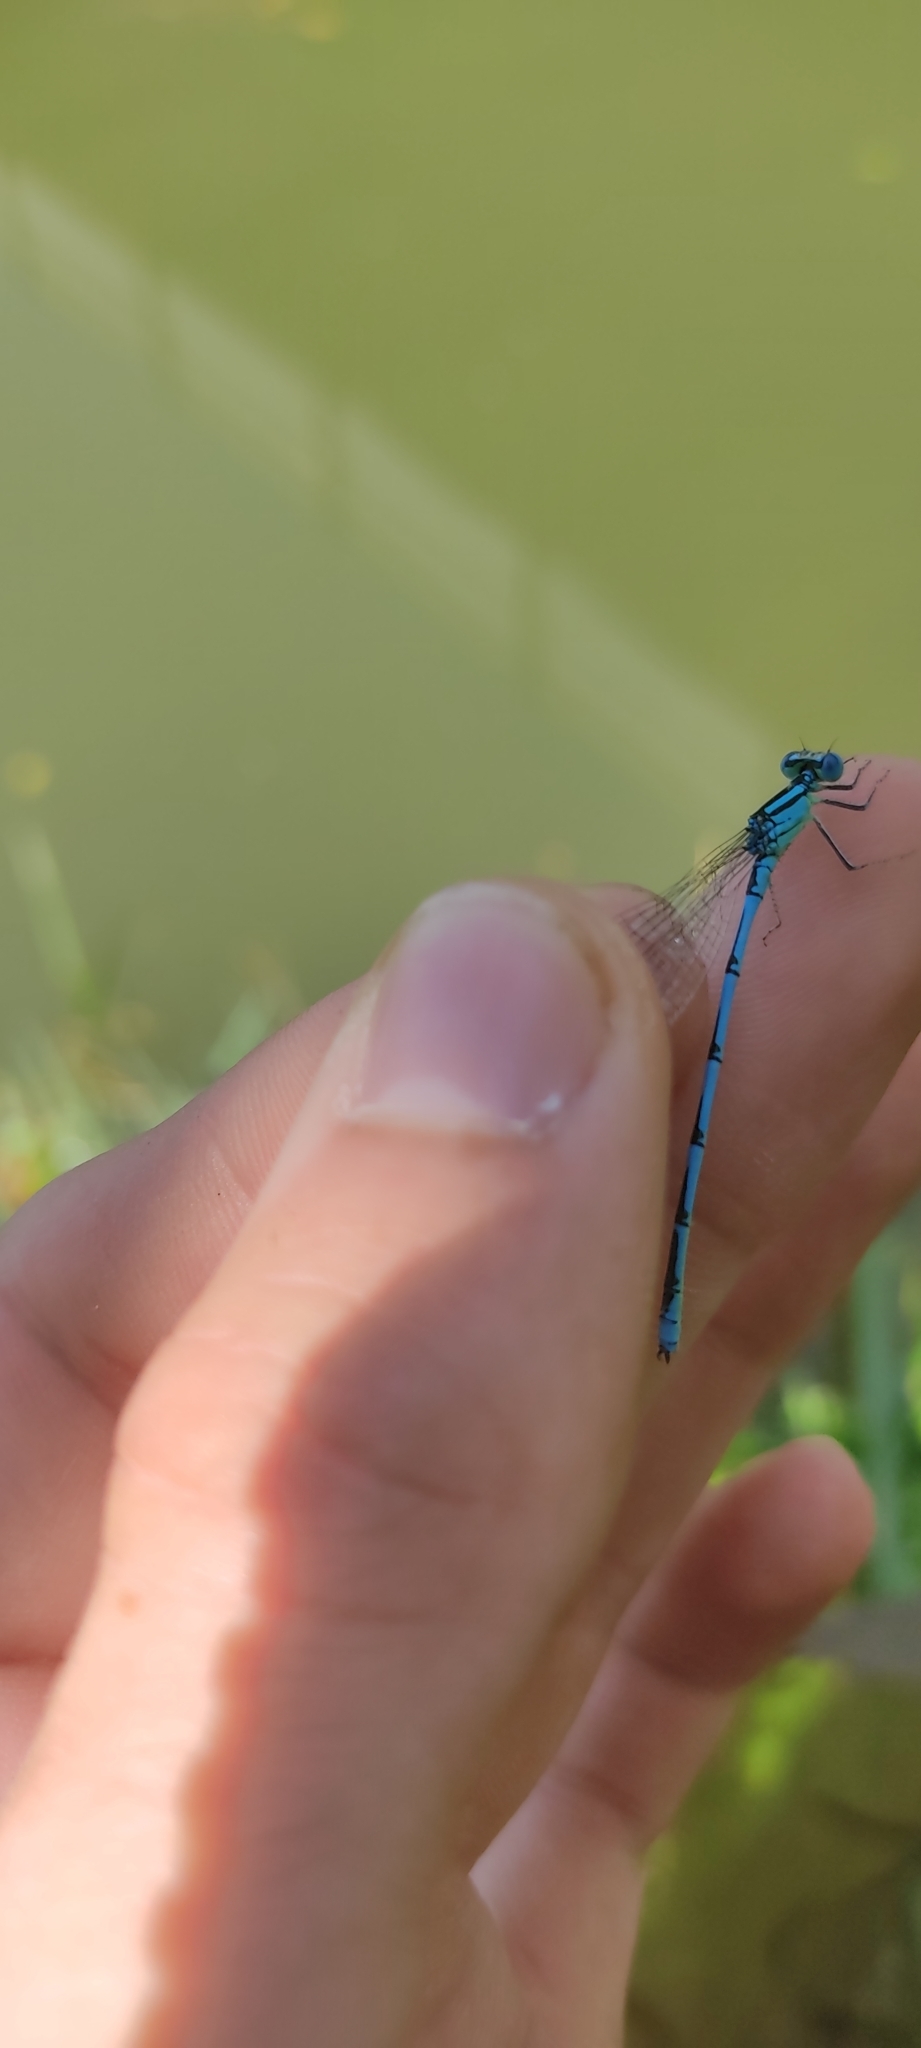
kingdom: Animalia
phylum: Arthropoda
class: Insecta
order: Odonata
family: Coenagrionidae
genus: Erythromma
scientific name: Erythromma lindenii
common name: Blue-eye
